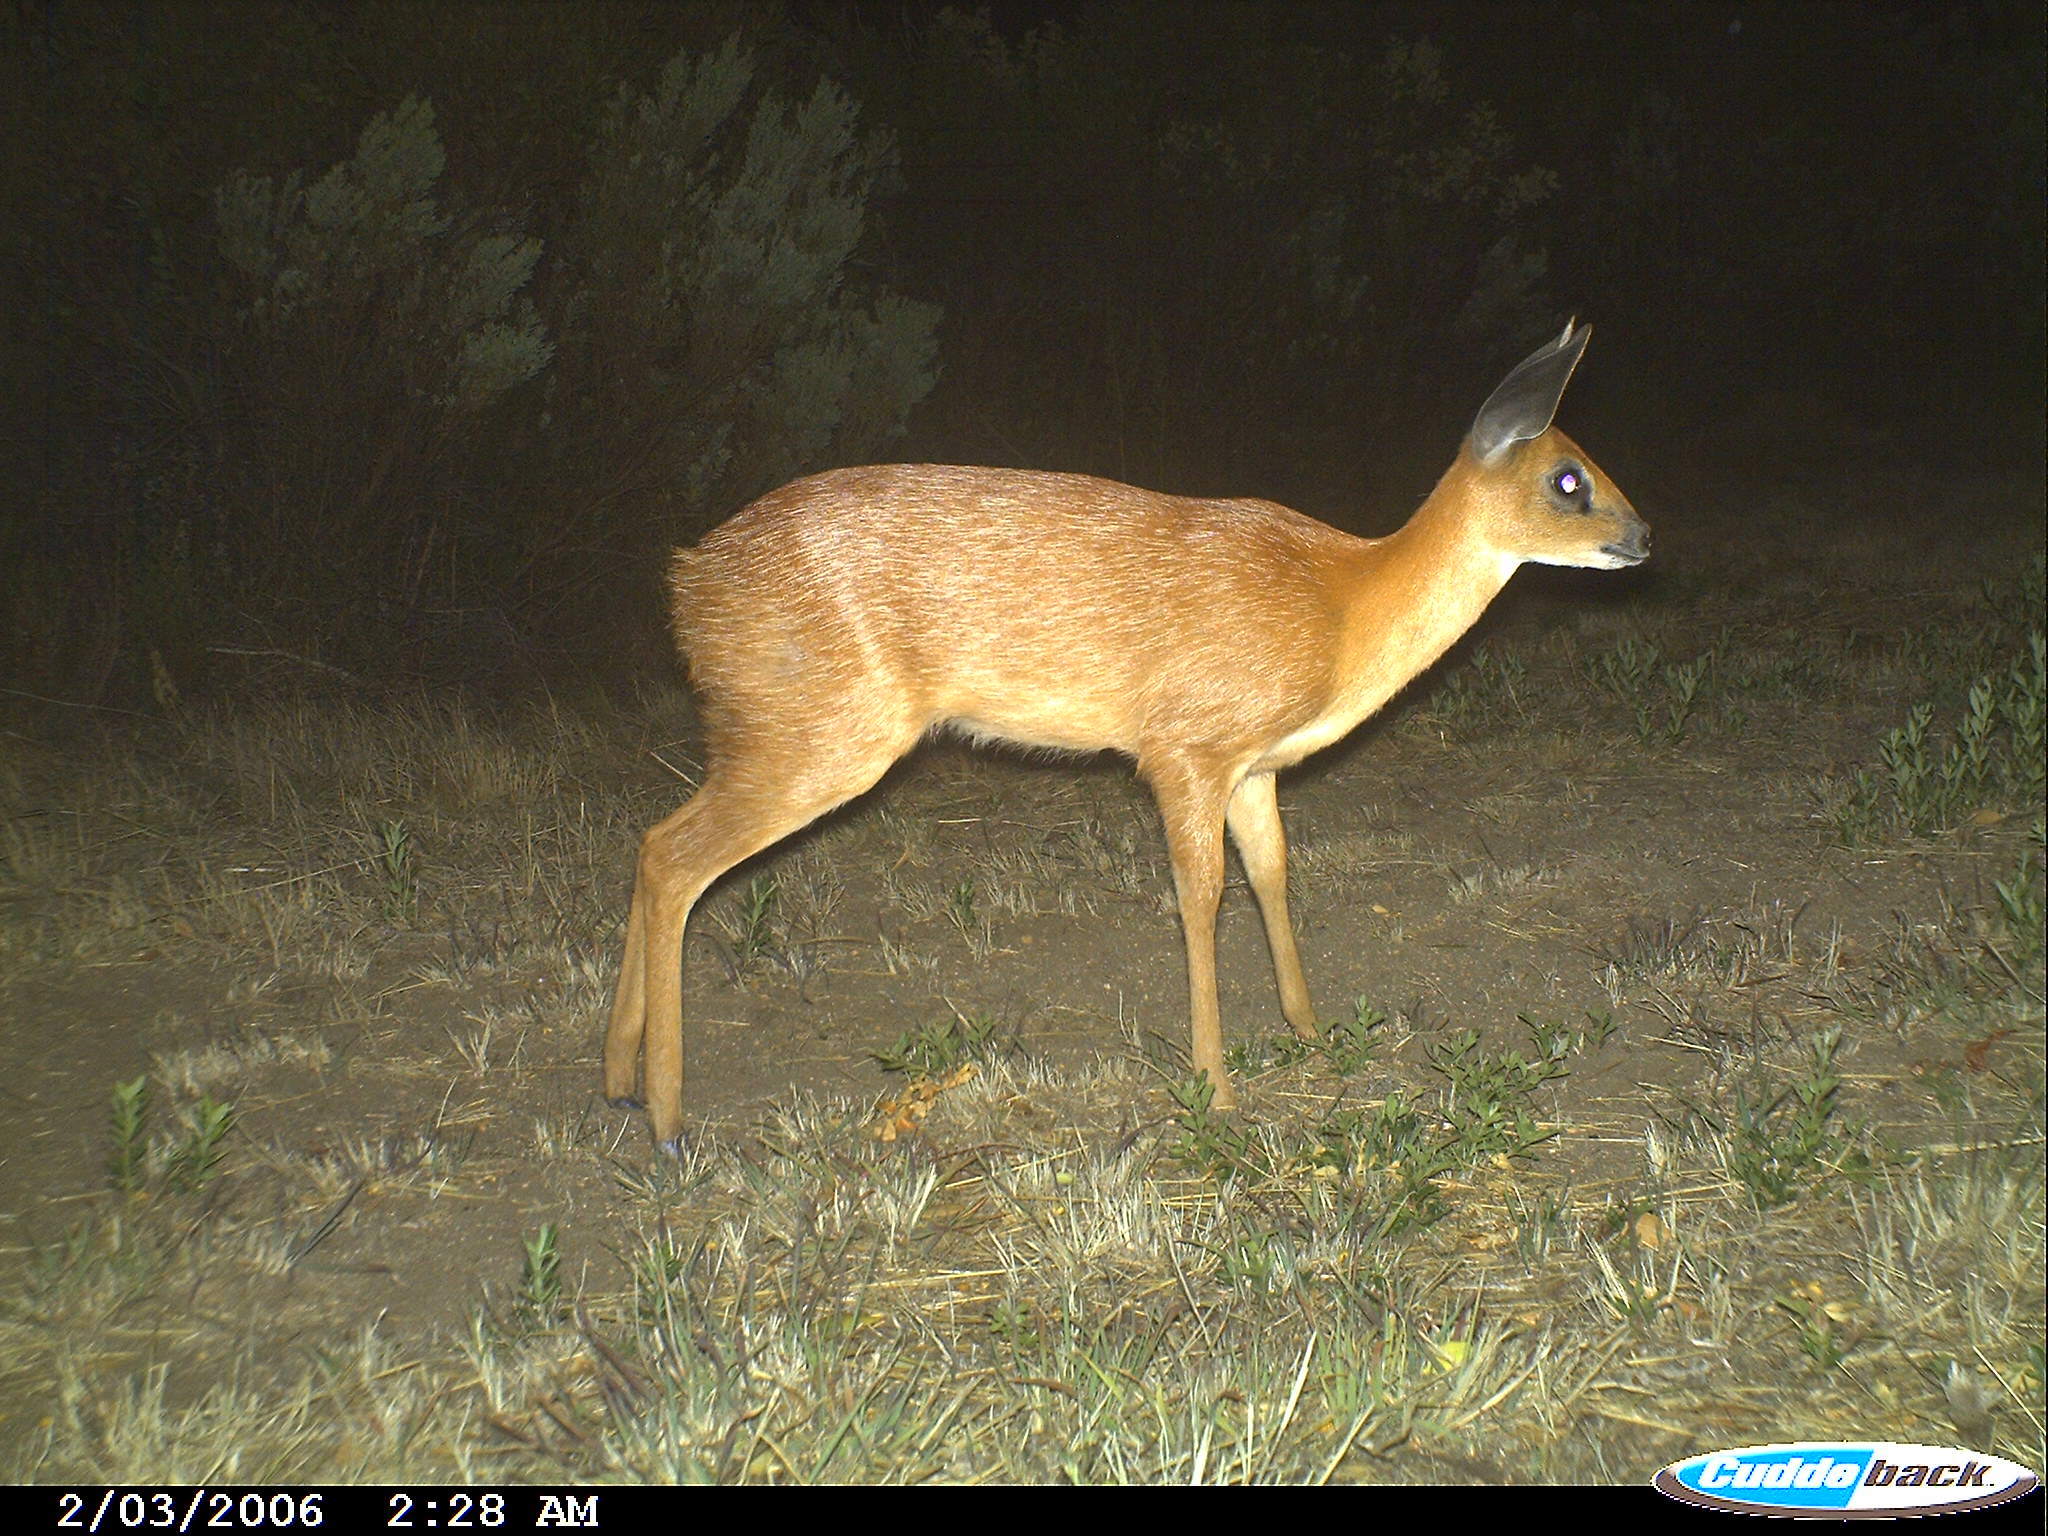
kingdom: Animalia
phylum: Chordata
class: Mammalia
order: Artiodactyla
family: Bovidae
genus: Raphicerus
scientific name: Raphicerus melanotis
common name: Cape grysbok
